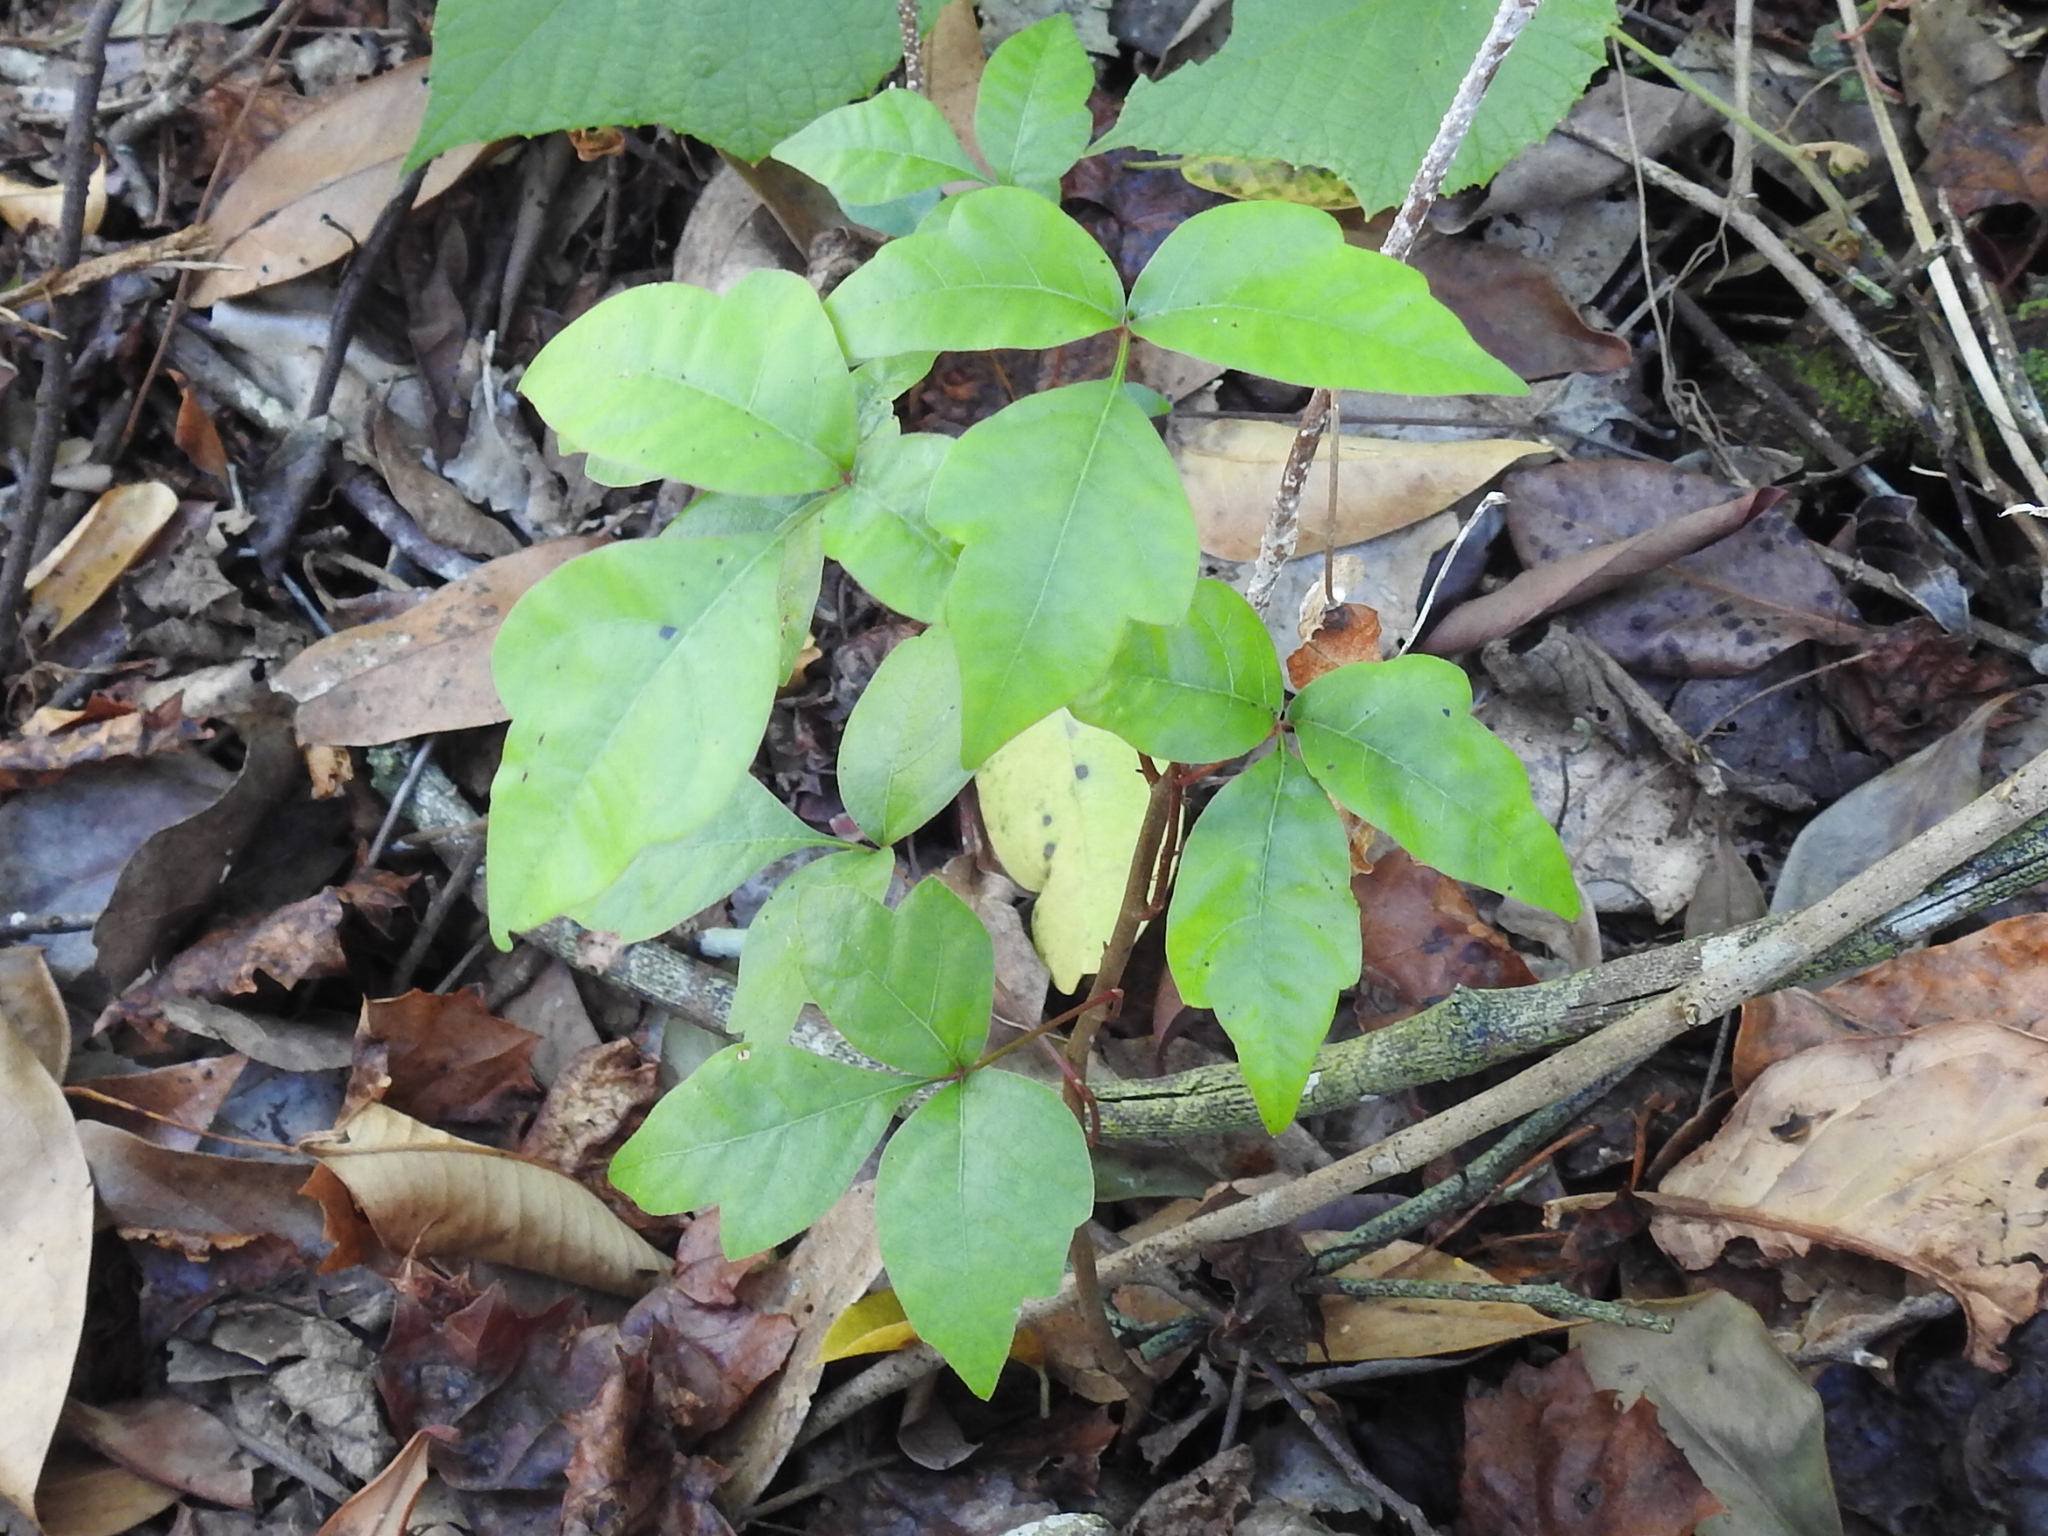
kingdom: Plantae
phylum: Tracheophyta
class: Magnoliopsida
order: Sapindales
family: Anacardiaceae
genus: Toxicodendron
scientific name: Toxicodendron radicans
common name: Poison ivy
